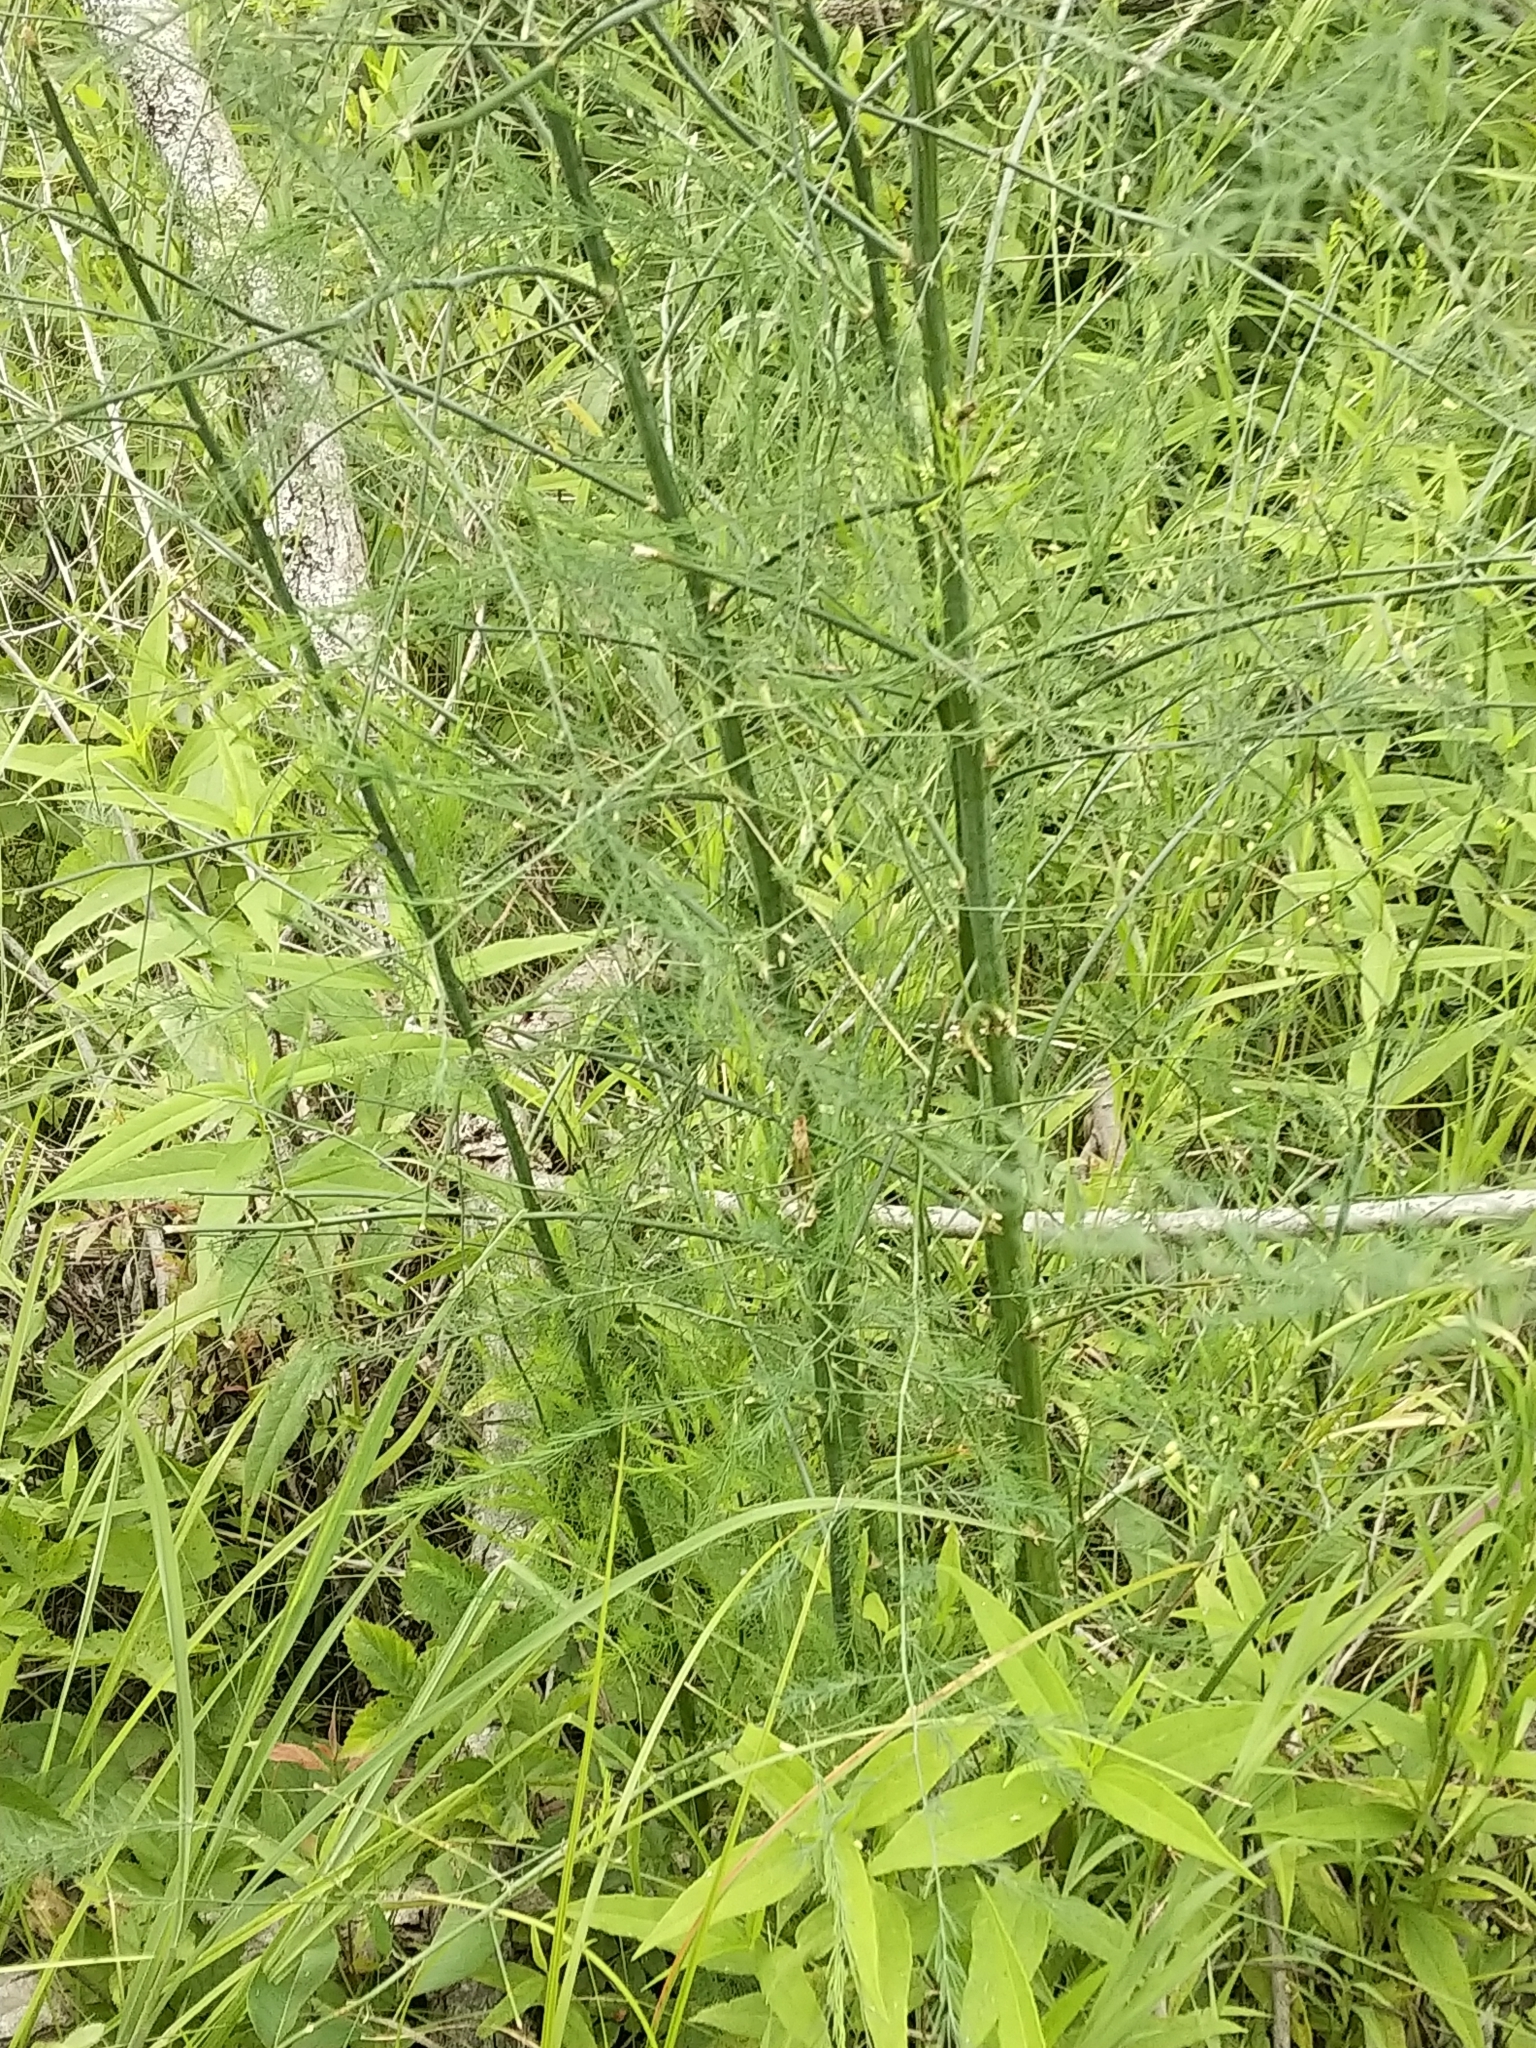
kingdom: Plantae
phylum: Tracheophyta
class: Liliopsida
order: Asparagales
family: Asparagaceae
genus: Asparagus
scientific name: Asparagus officinalis
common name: Garden asparagus
